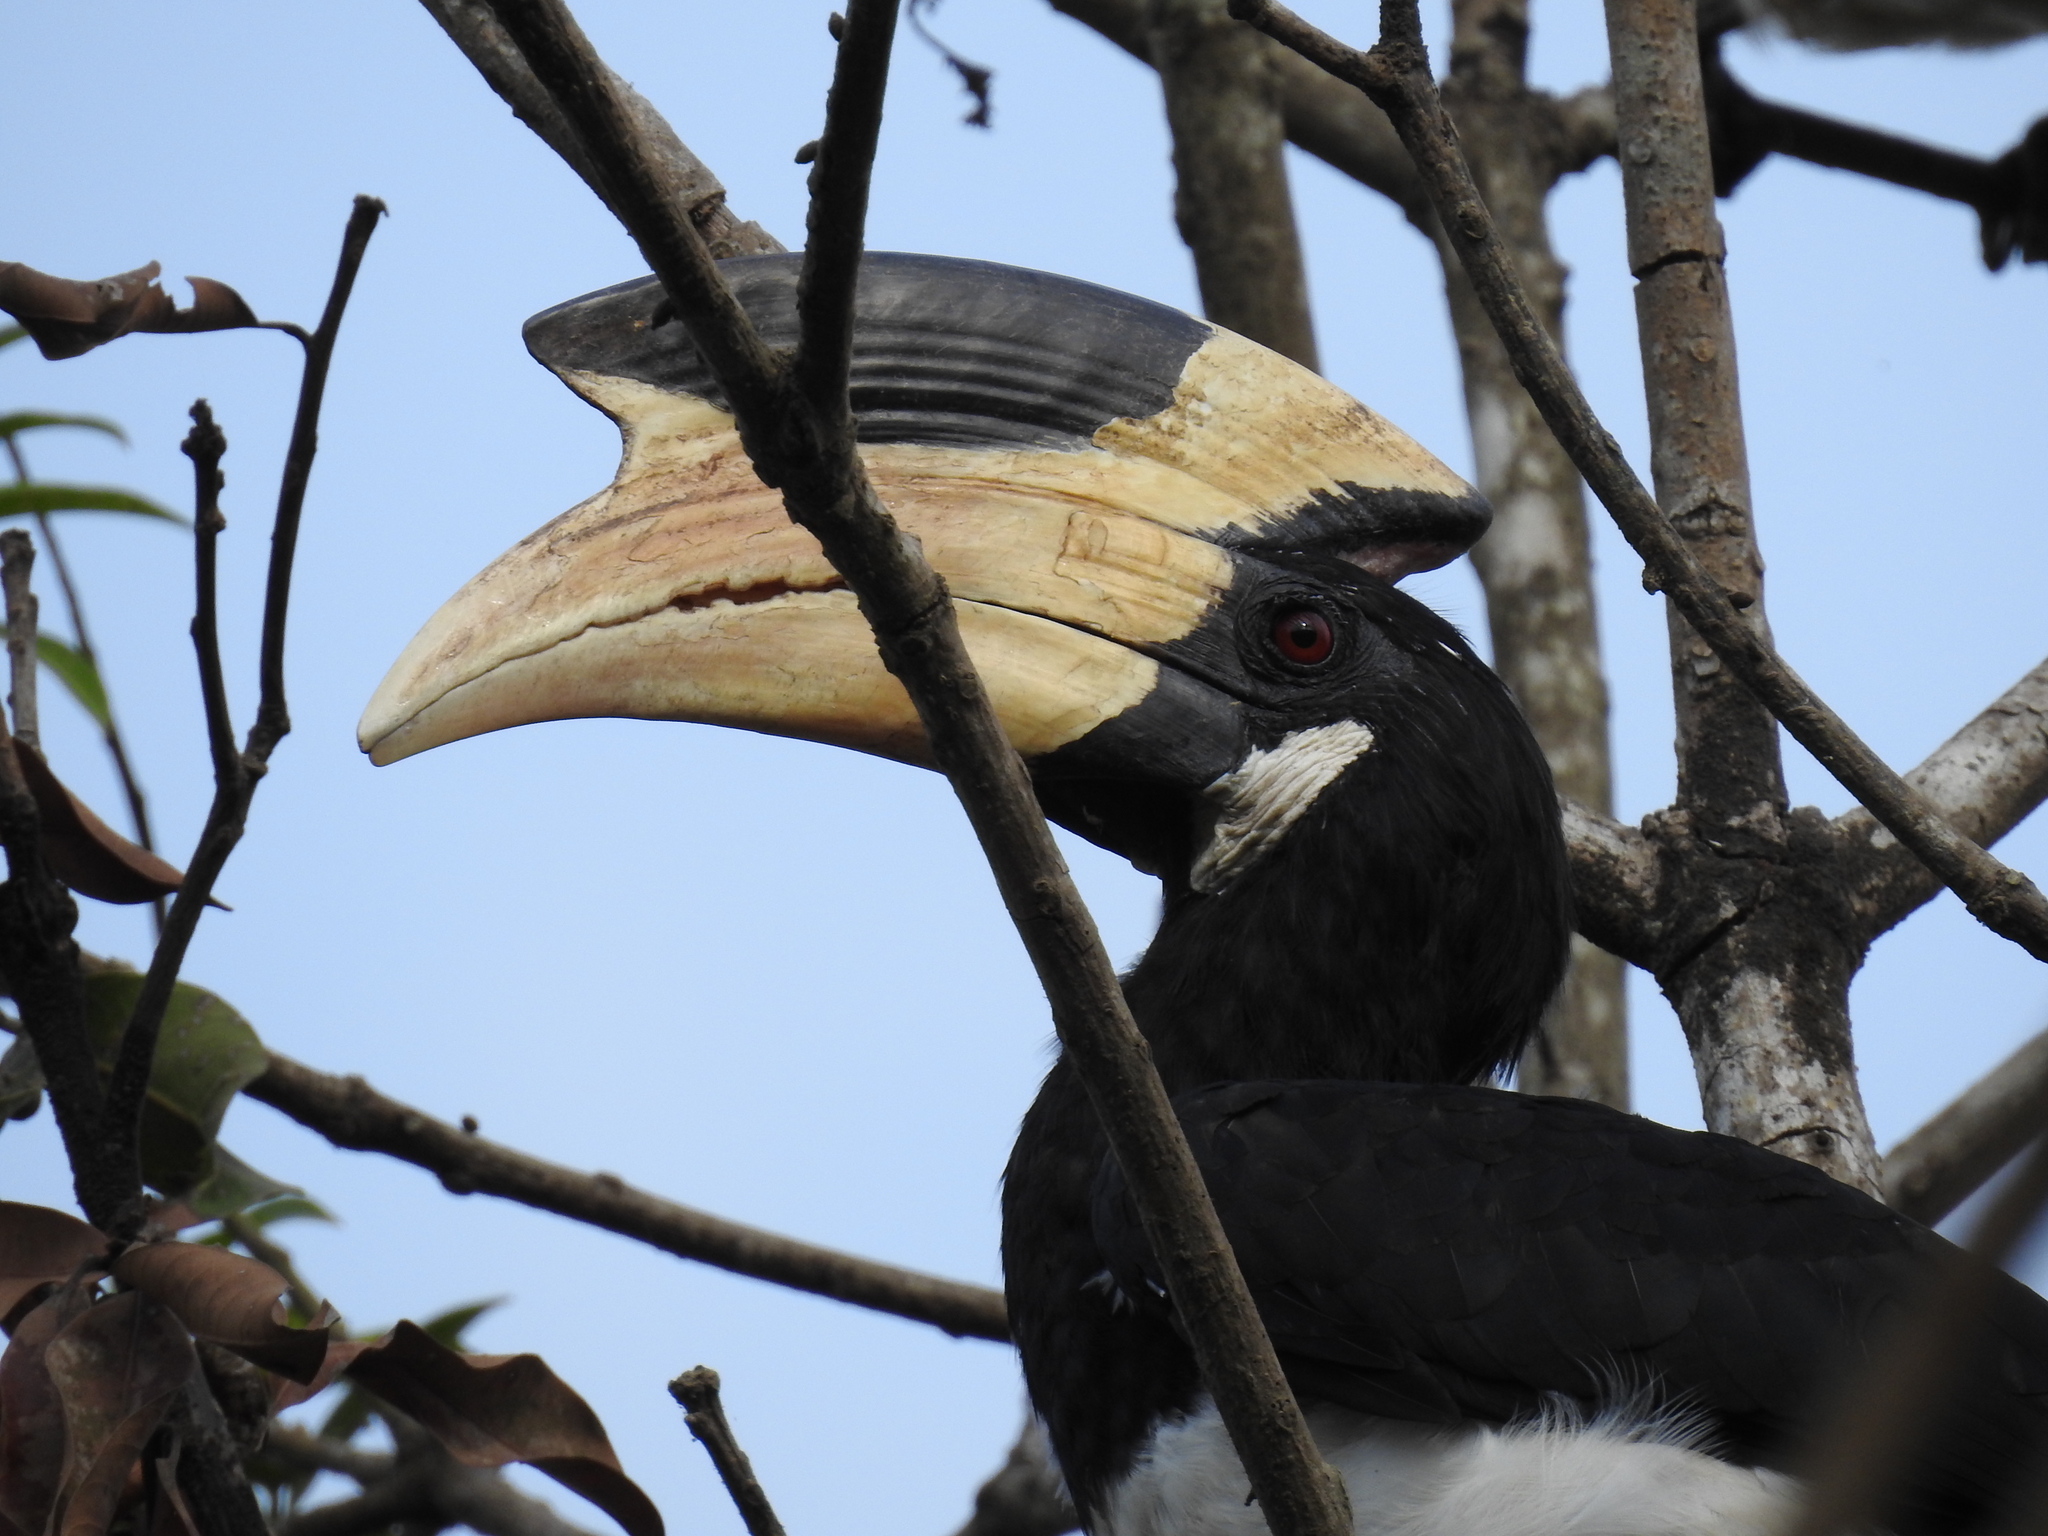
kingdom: Animalia
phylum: Chordata
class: Aves
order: Bucerotiformes
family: Bucerotidae
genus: Anthracoceros
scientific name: Anthracoceros coronatus
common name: Malabar pied hornbill
